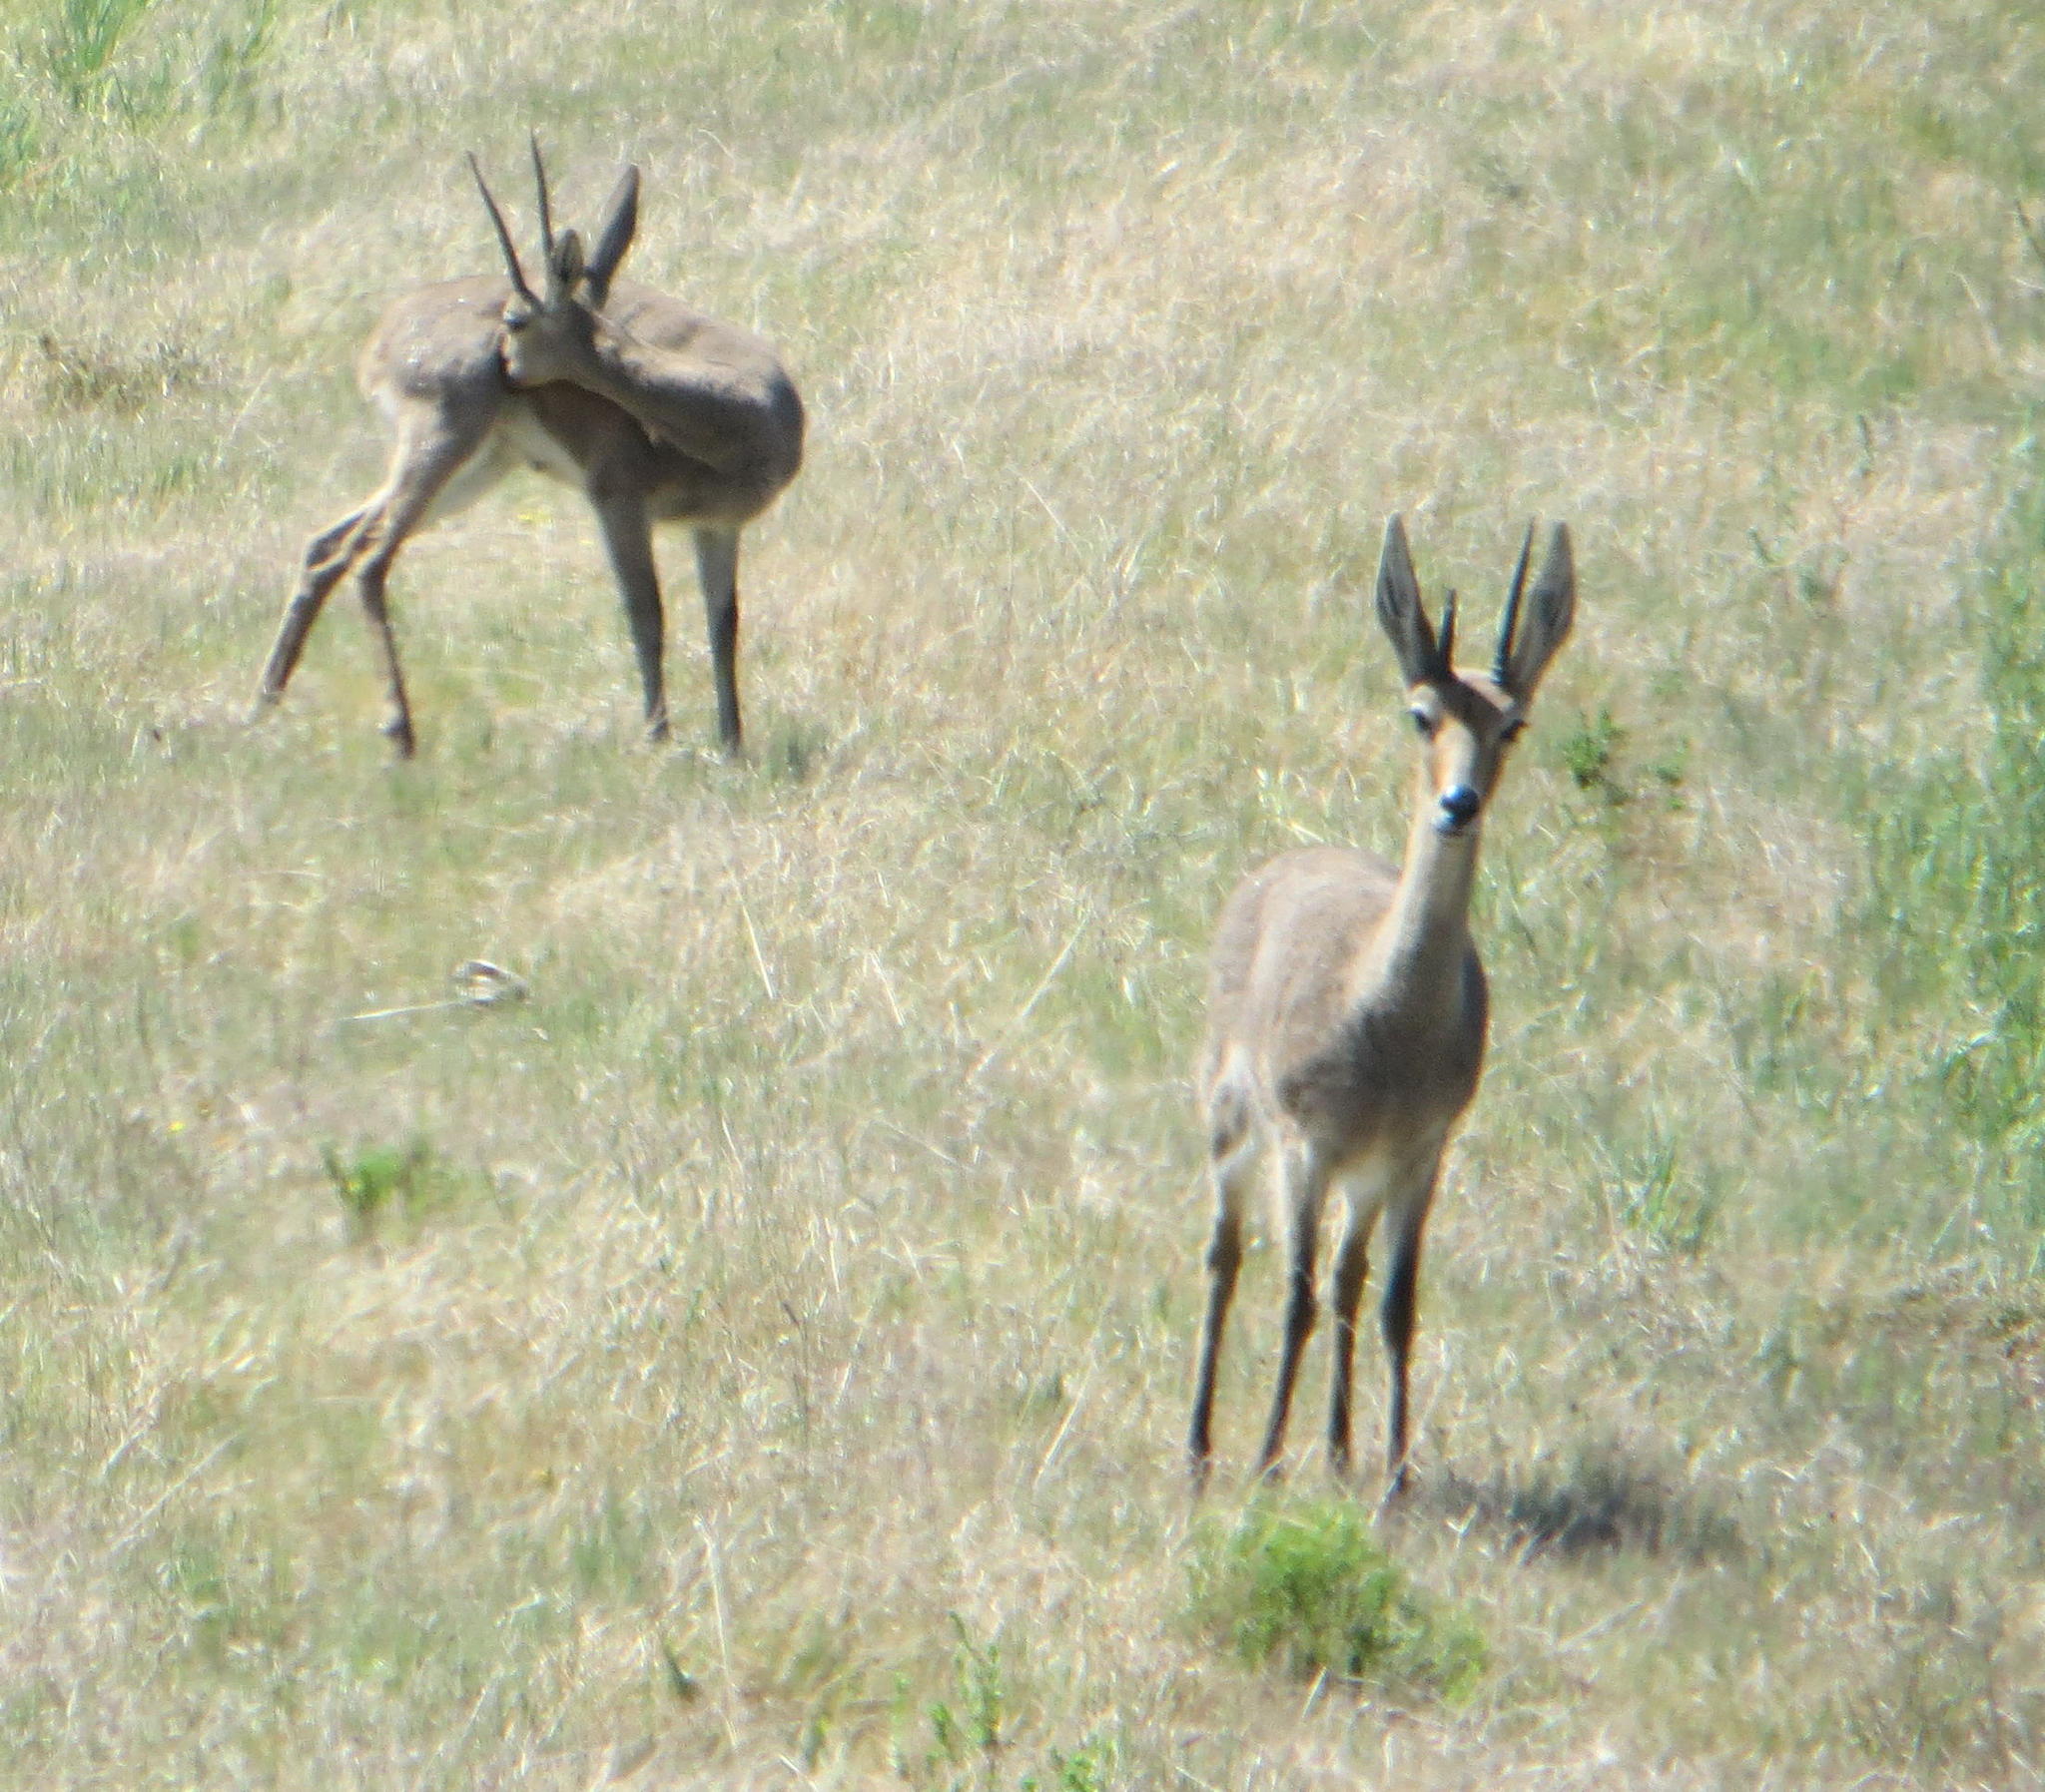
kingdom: Animalia
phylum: Chordata
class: Mammalia
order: Artiodactyla
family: Bovidae
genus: Pelea
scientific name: Pelea capreolus
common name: Common rhebok
